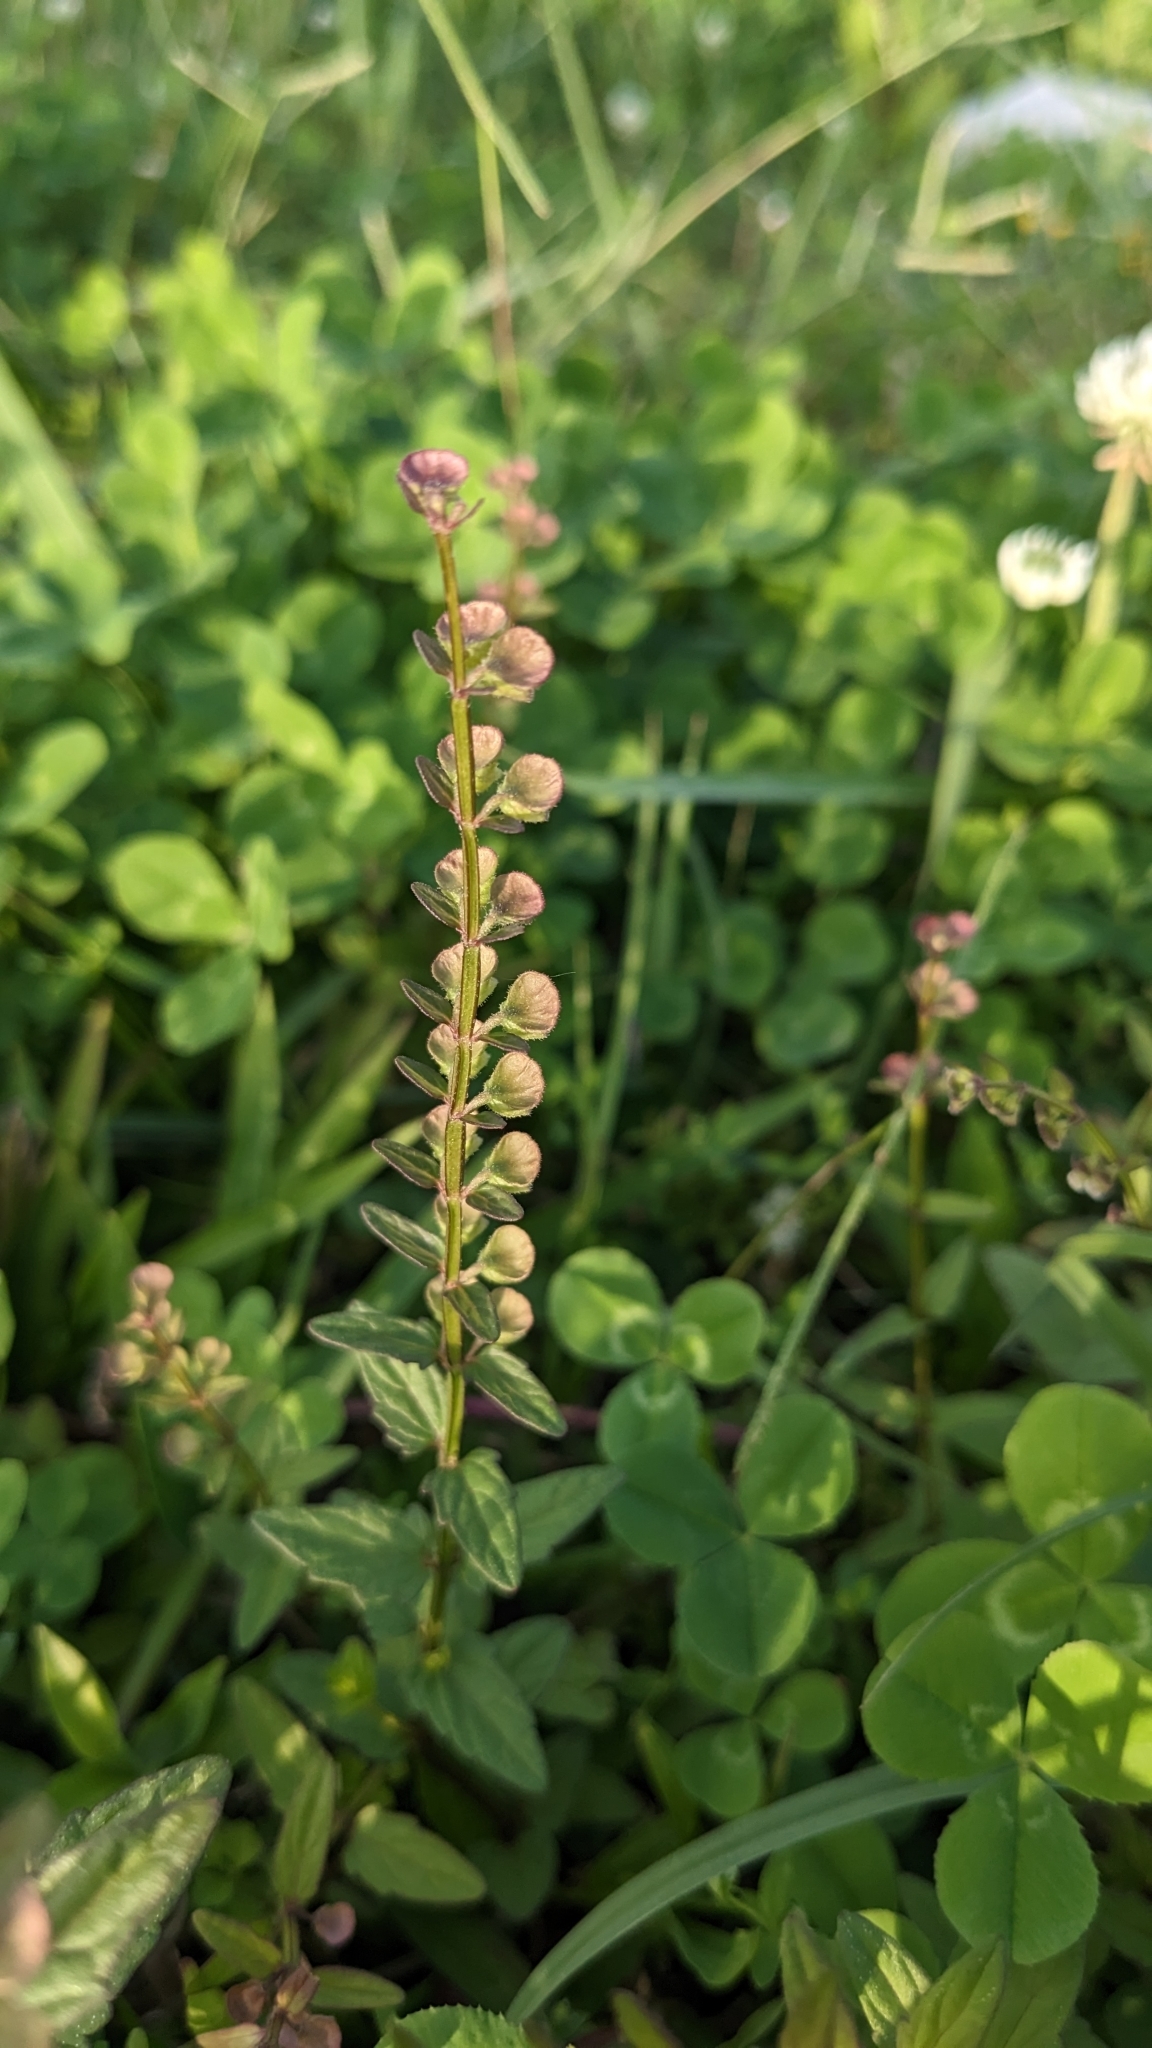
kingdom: Plantae
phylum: Tracheophyta
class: Magnoliopsida
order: Lamiales
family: Lamiaceae
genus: Scutellaria
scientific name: Scutellaria barbata
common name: Barbed skullcap
